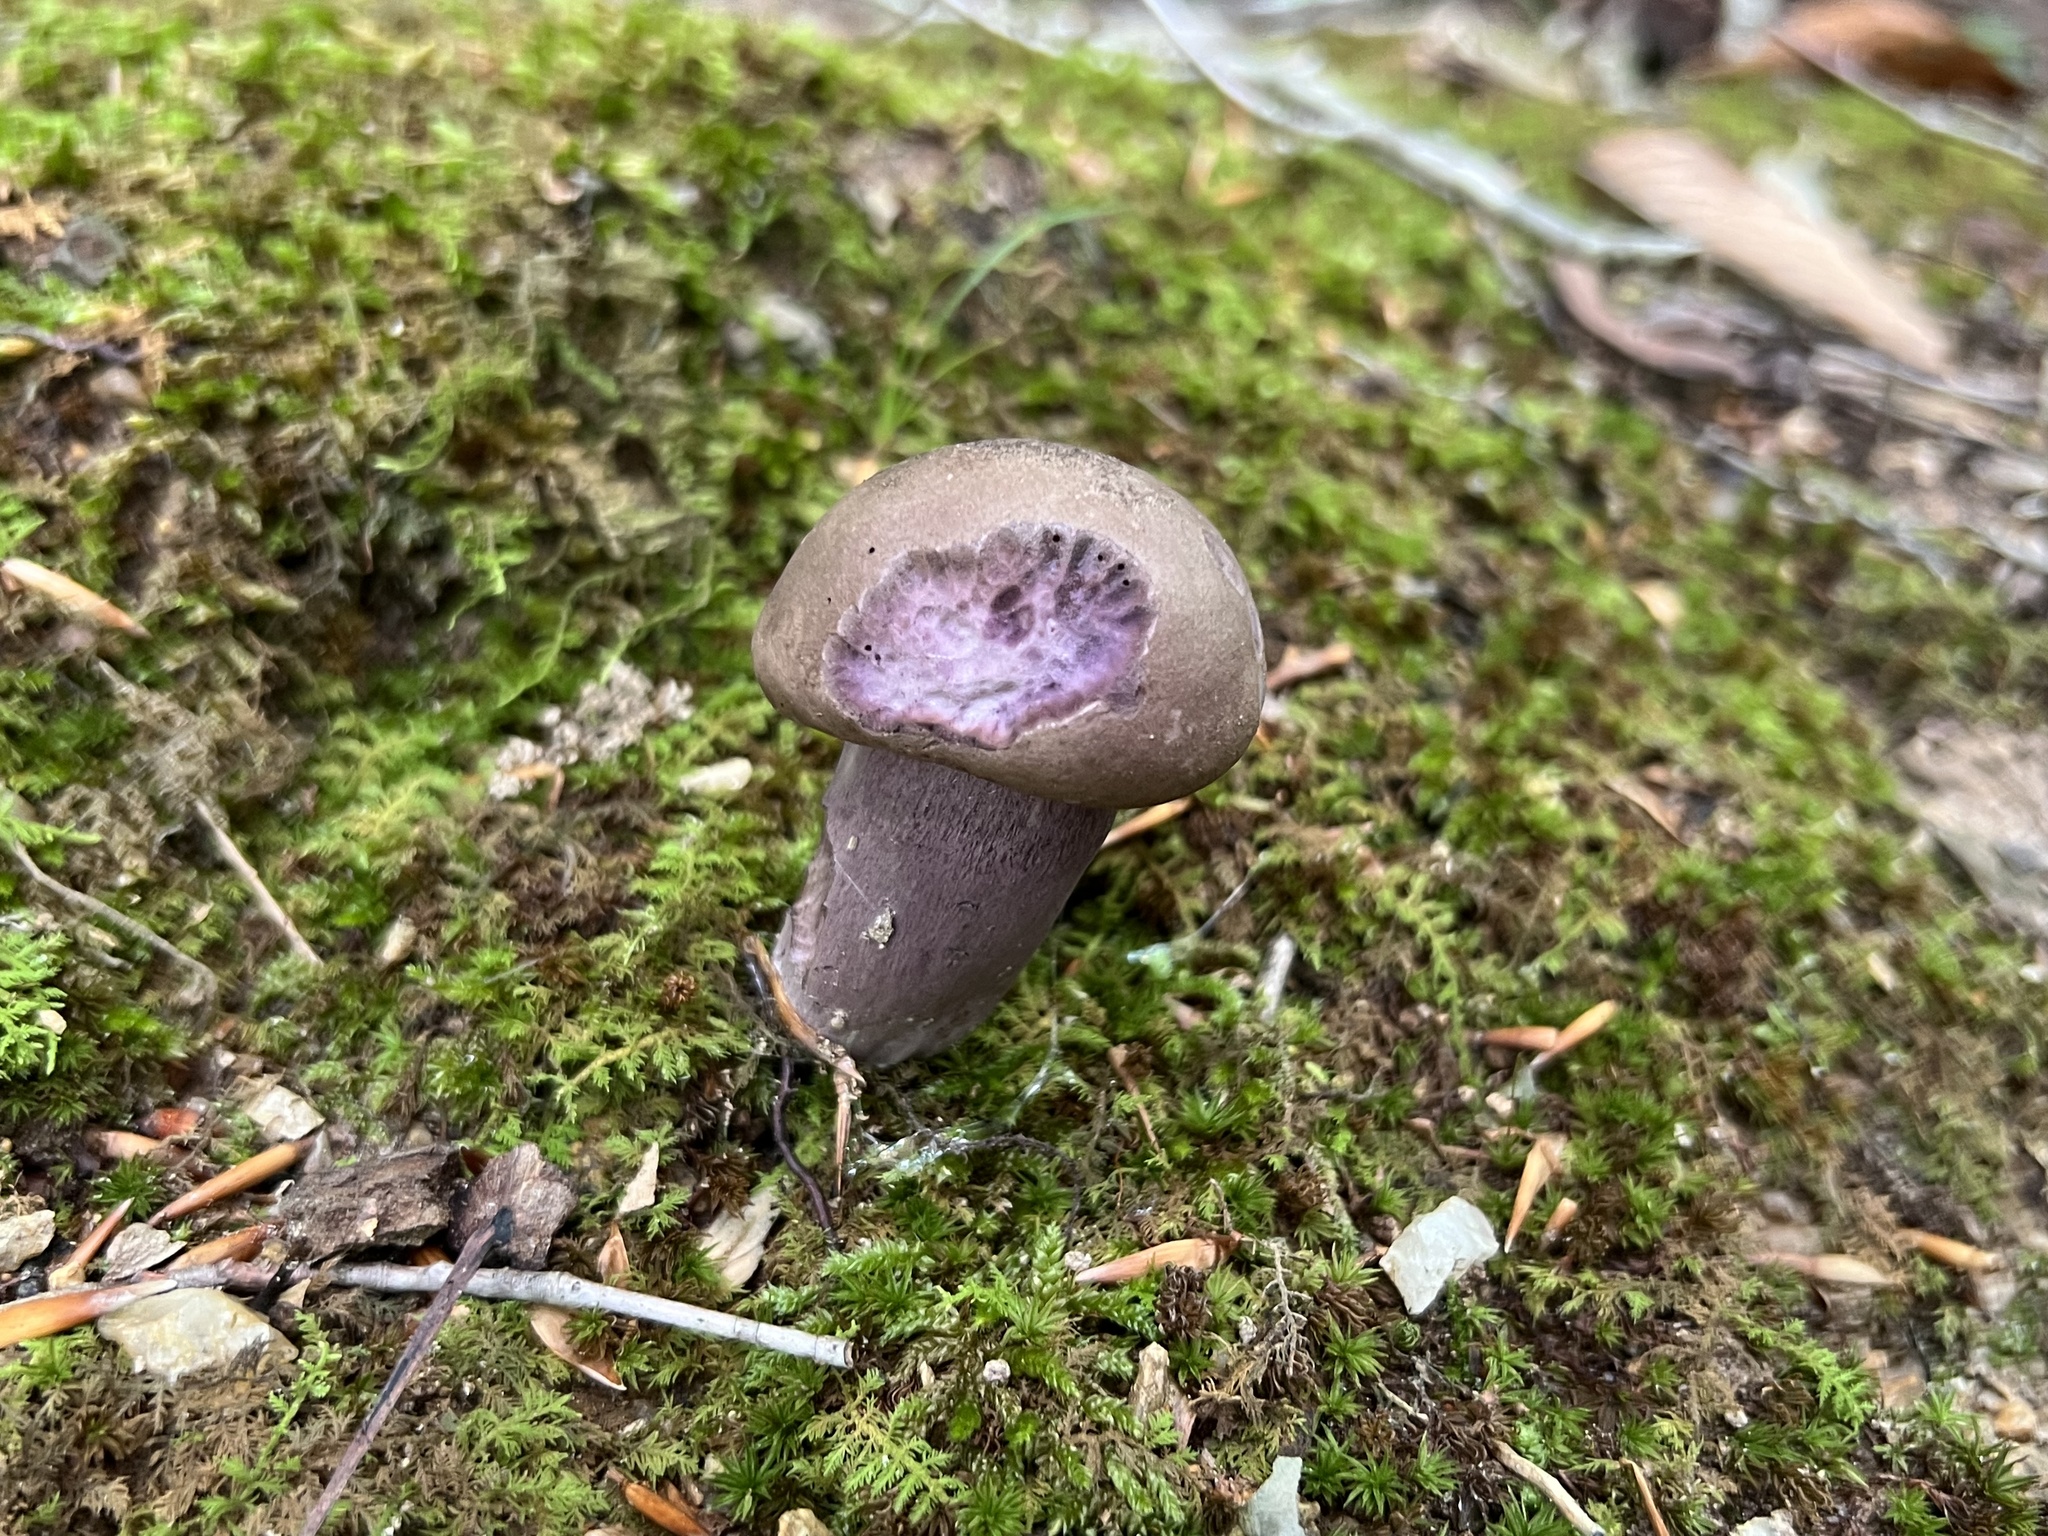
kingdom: Fungi
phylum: Basidiomycota
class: Agaricomycetes
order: Boletales
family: Boletaceae
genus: Tylopilus
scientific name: Tylopilus plumbeoviolaceus
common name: Violet gray bolete
